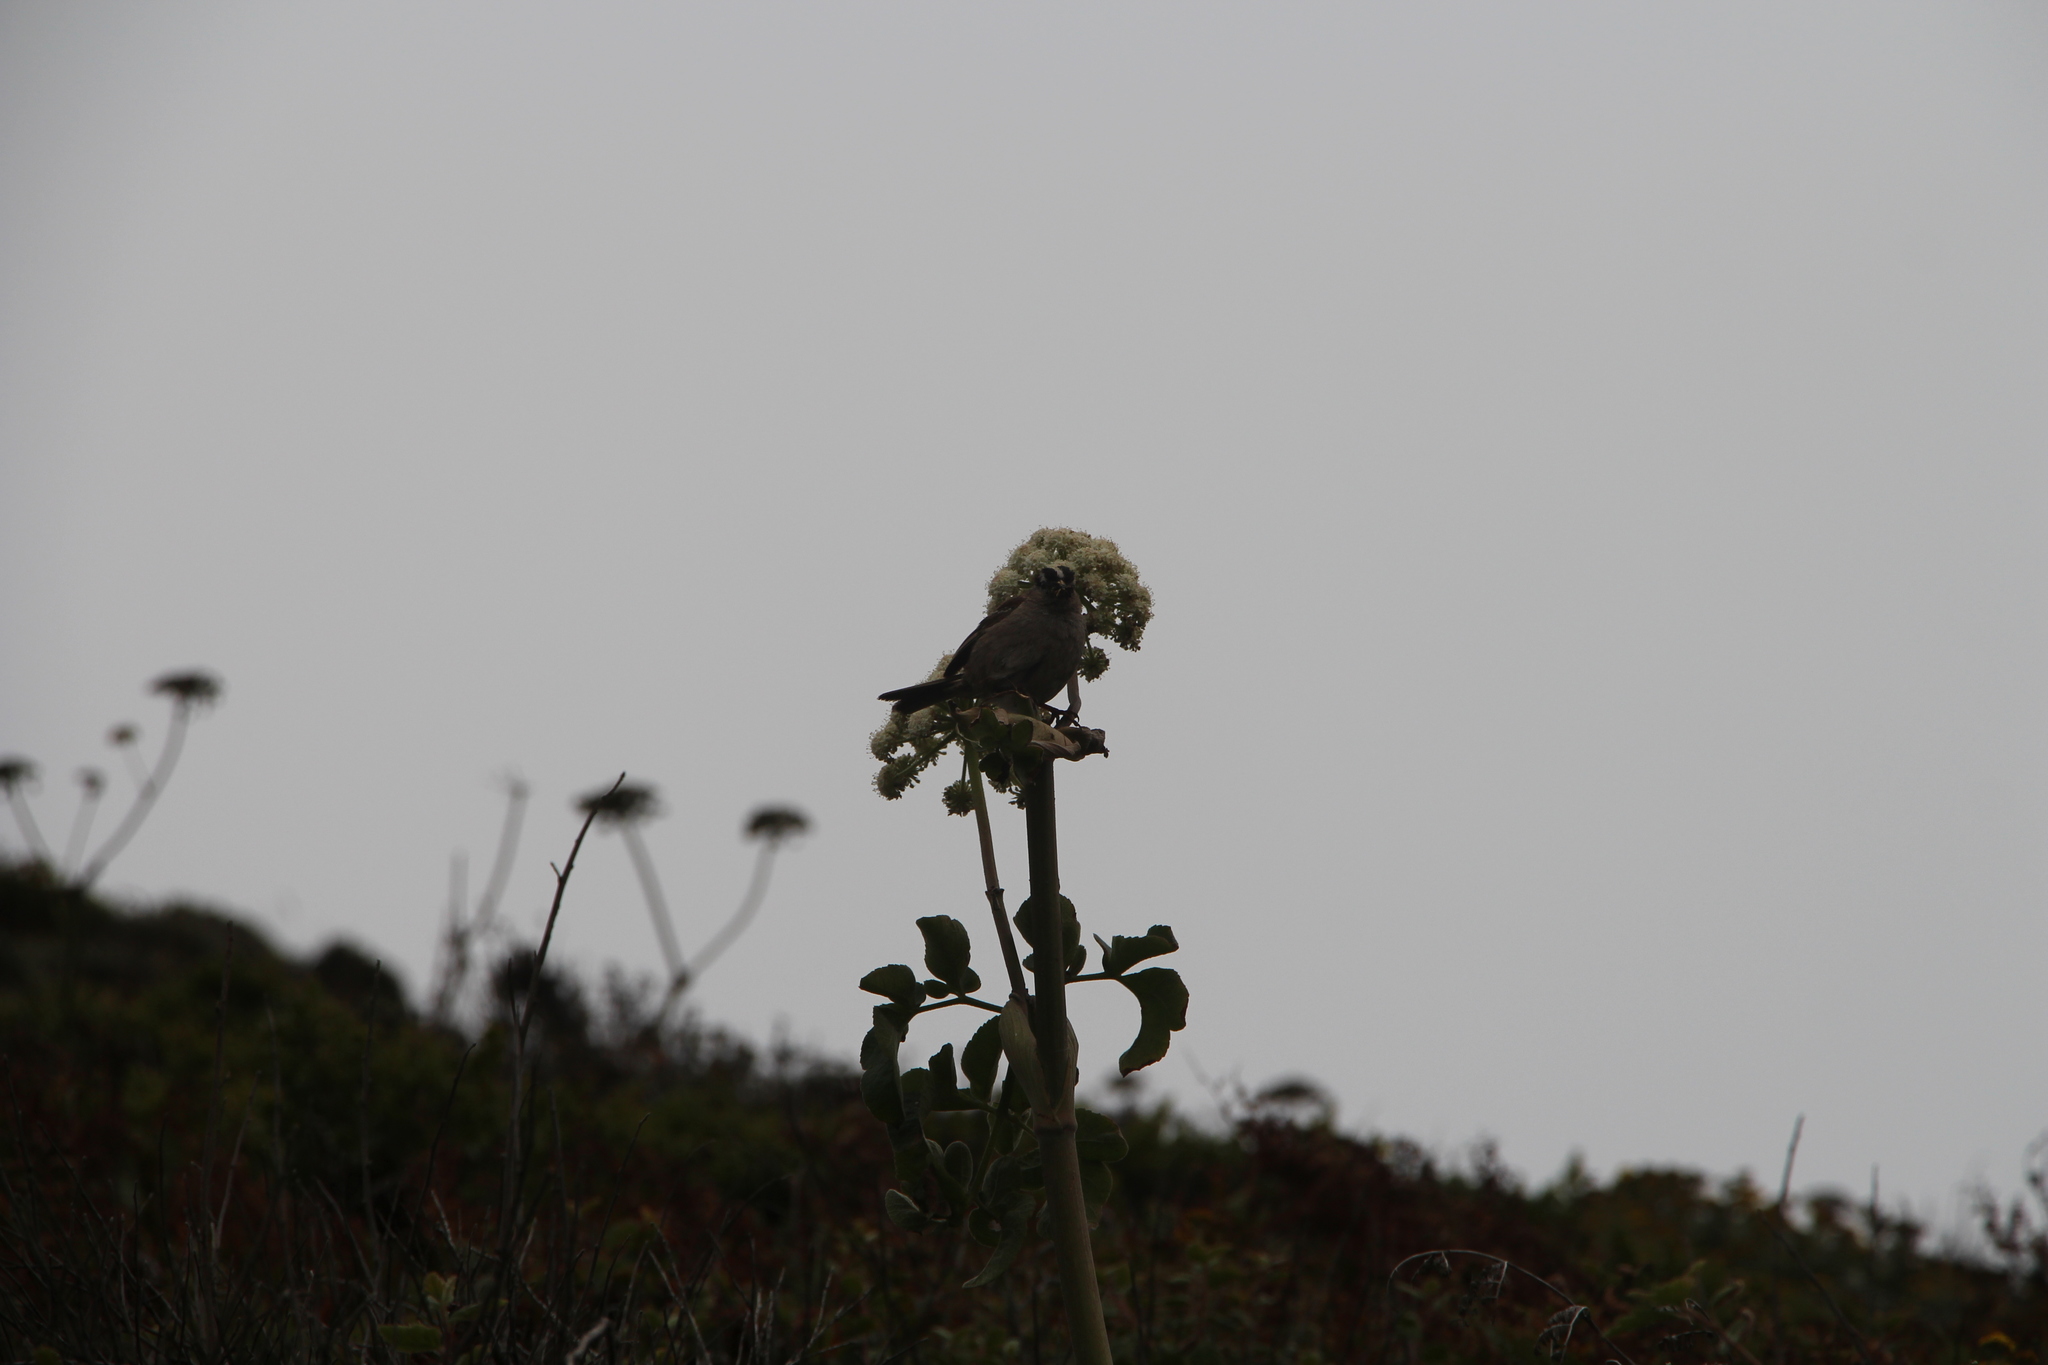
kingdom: Animalia
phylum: Chordata
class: Aves
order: Passeriformes
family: Passerellidae
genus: Zonotrichia
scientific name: Zonotrichia leucophrys
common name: White-crowned sparrow
